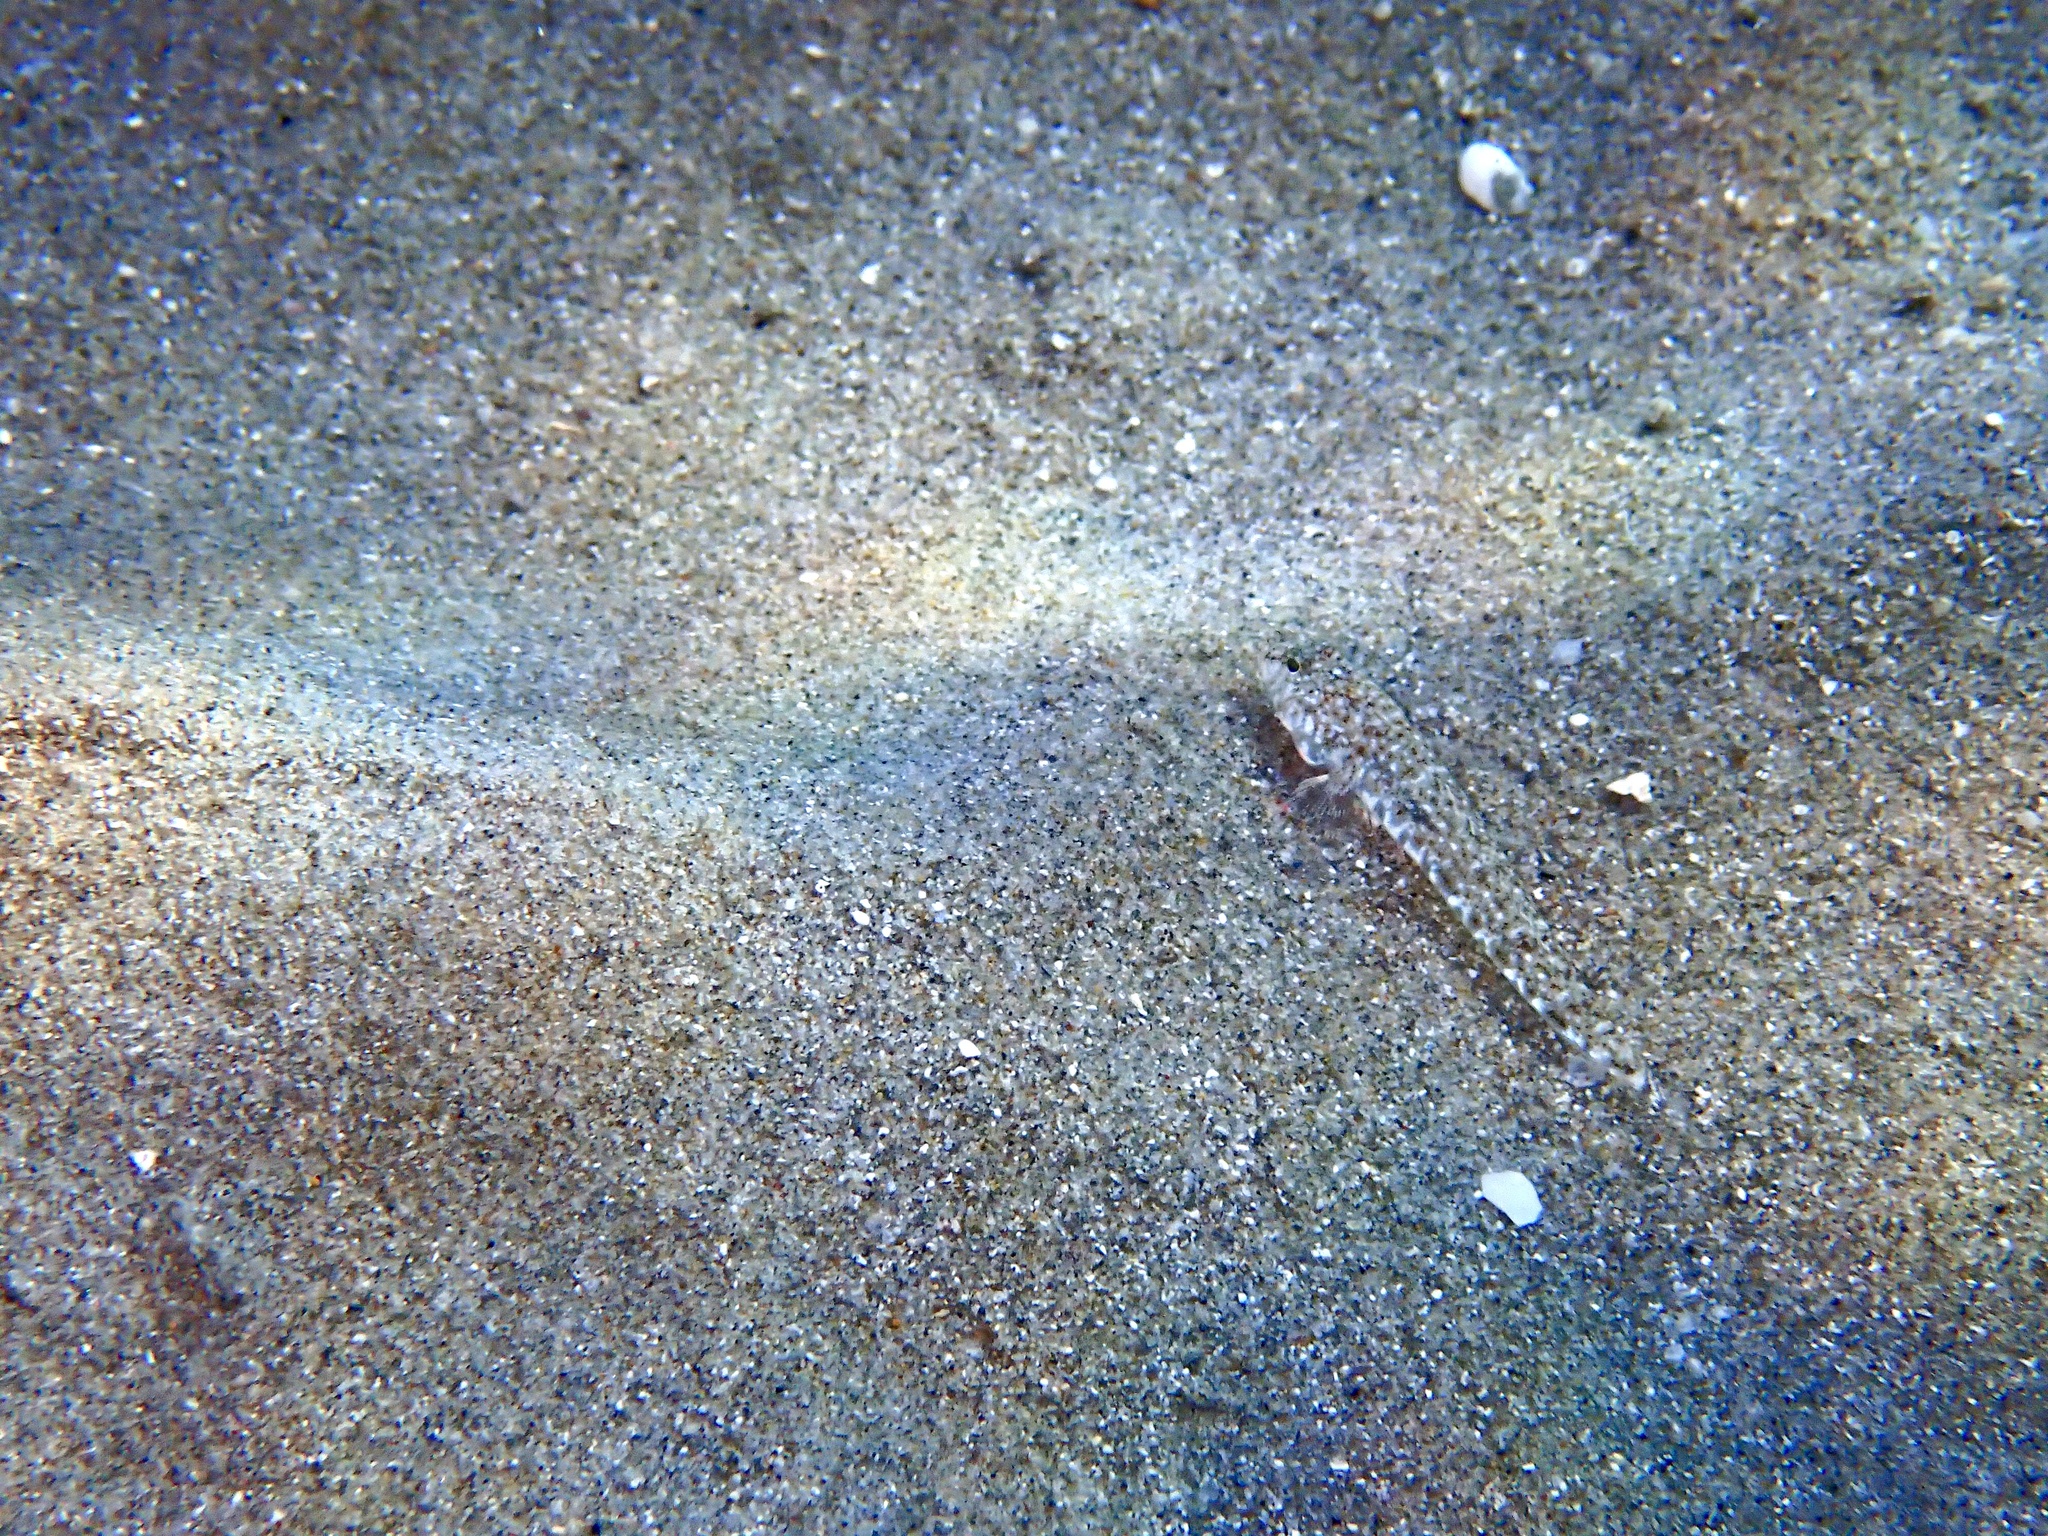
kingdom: Animalia
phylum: Chordata
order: Perciformes
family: Gobiidae
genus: Pomatoschistus
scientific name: Pomatoschistus marmoratus
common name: Marbled goby
